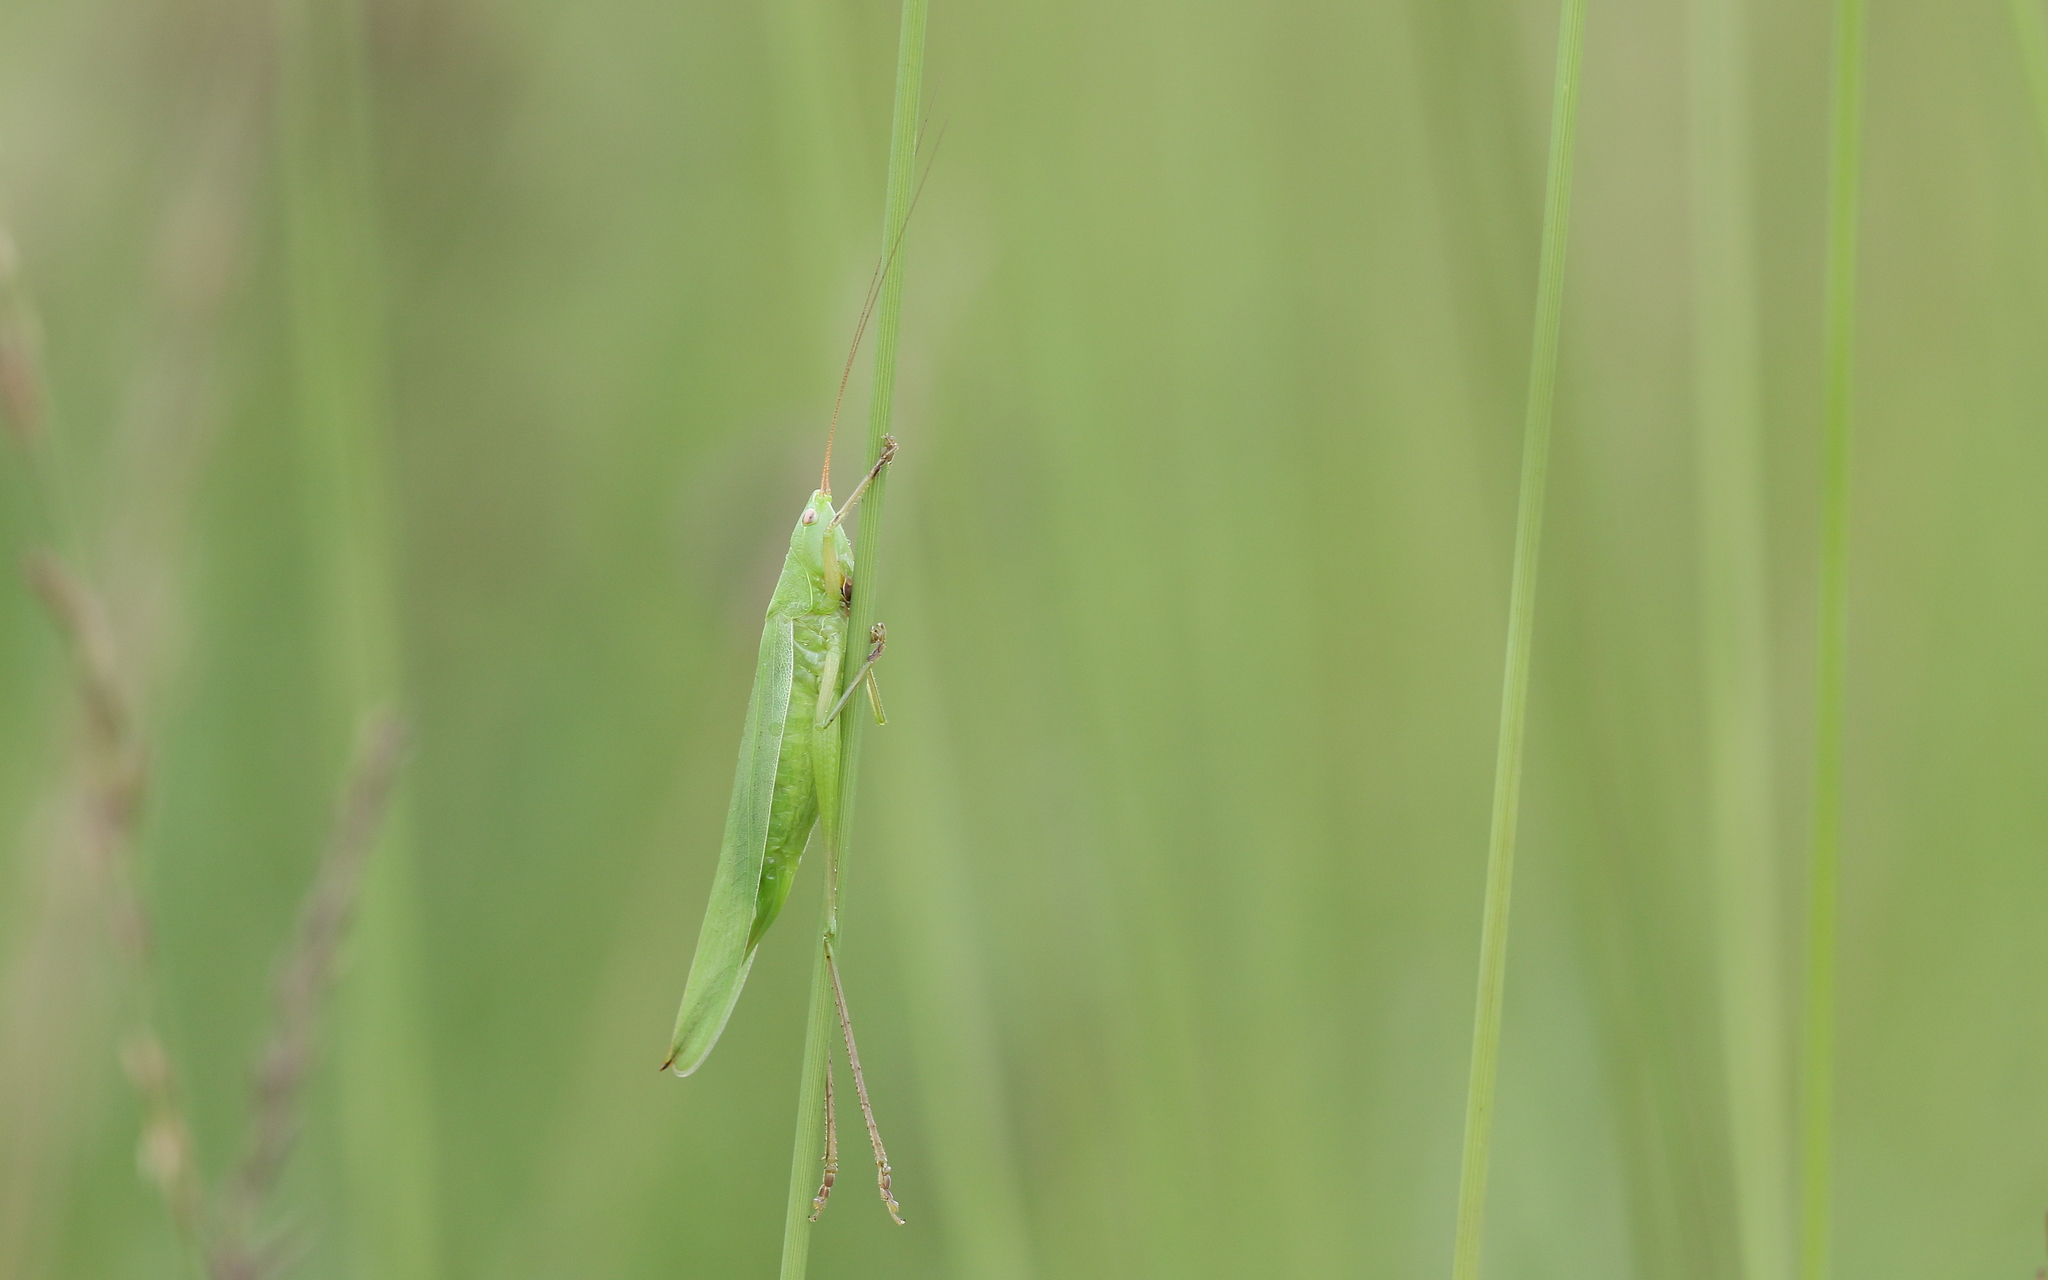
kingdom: Animalia
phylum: Arthropoda
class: Insecta
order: Orthoptera
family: Tettigoniidae
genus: Ruspolia
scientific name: Ruspolia nitidula
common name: Large conehead
